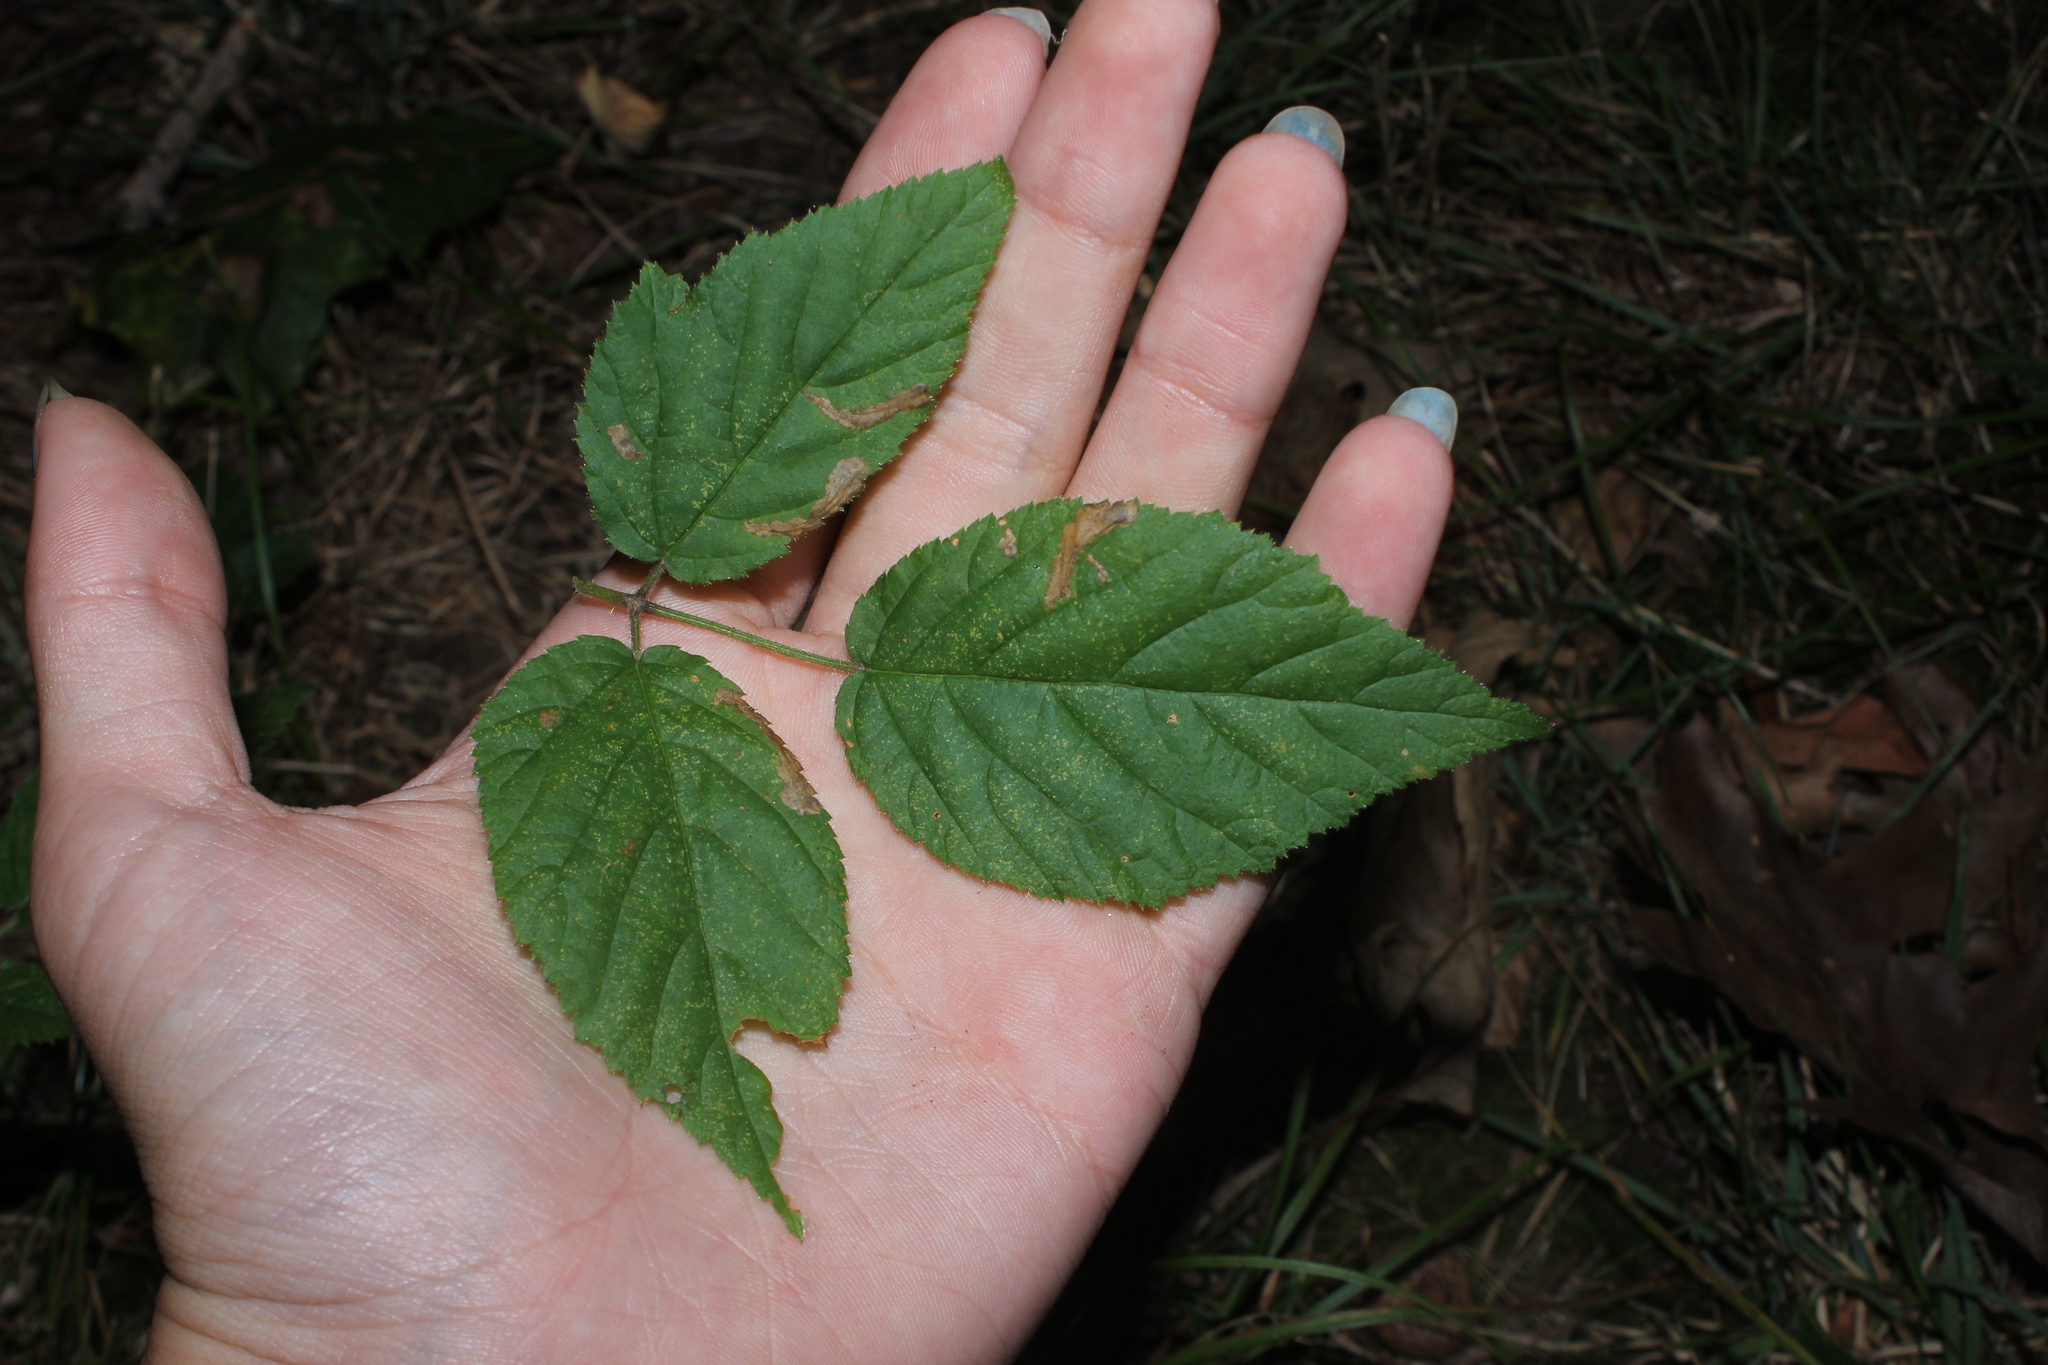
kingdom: Animalia
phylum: Arthropoda
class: Insecta
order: Hymenoptera
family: Tenthredinidae
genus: Metallus
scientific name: Metallus rohweri
